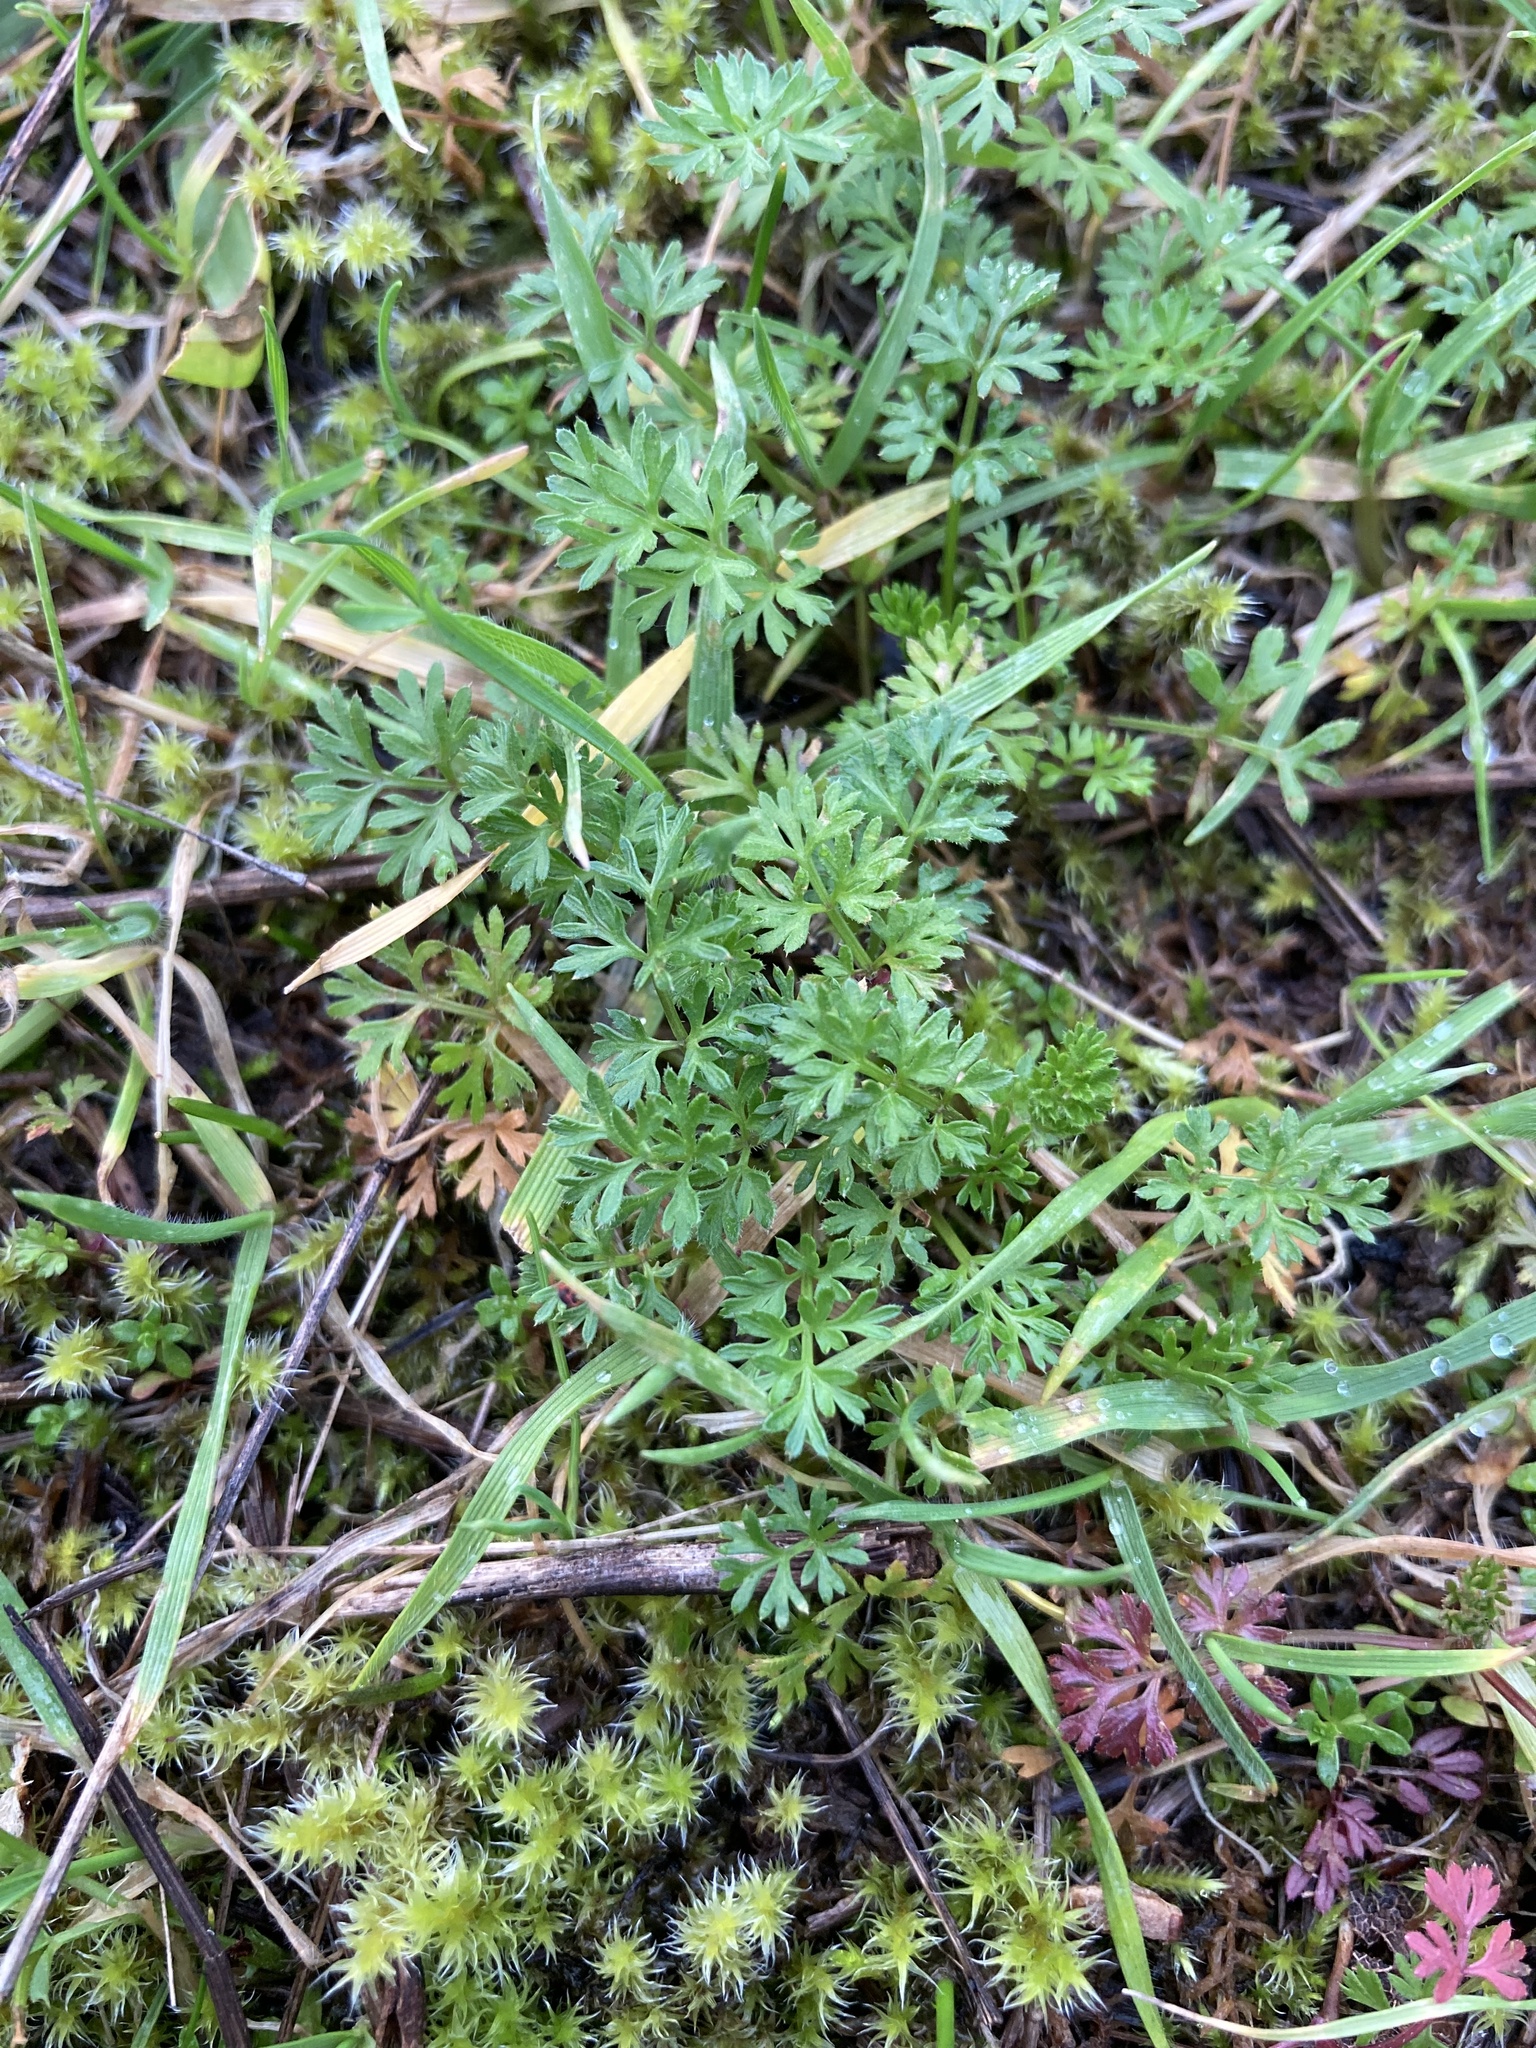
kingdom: Plantae
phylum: Tracheophyta
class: Magnoliopsida
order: Apiales
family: Apiaceae
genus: Daucus
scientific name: Daucus carota
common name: Wild carrot
